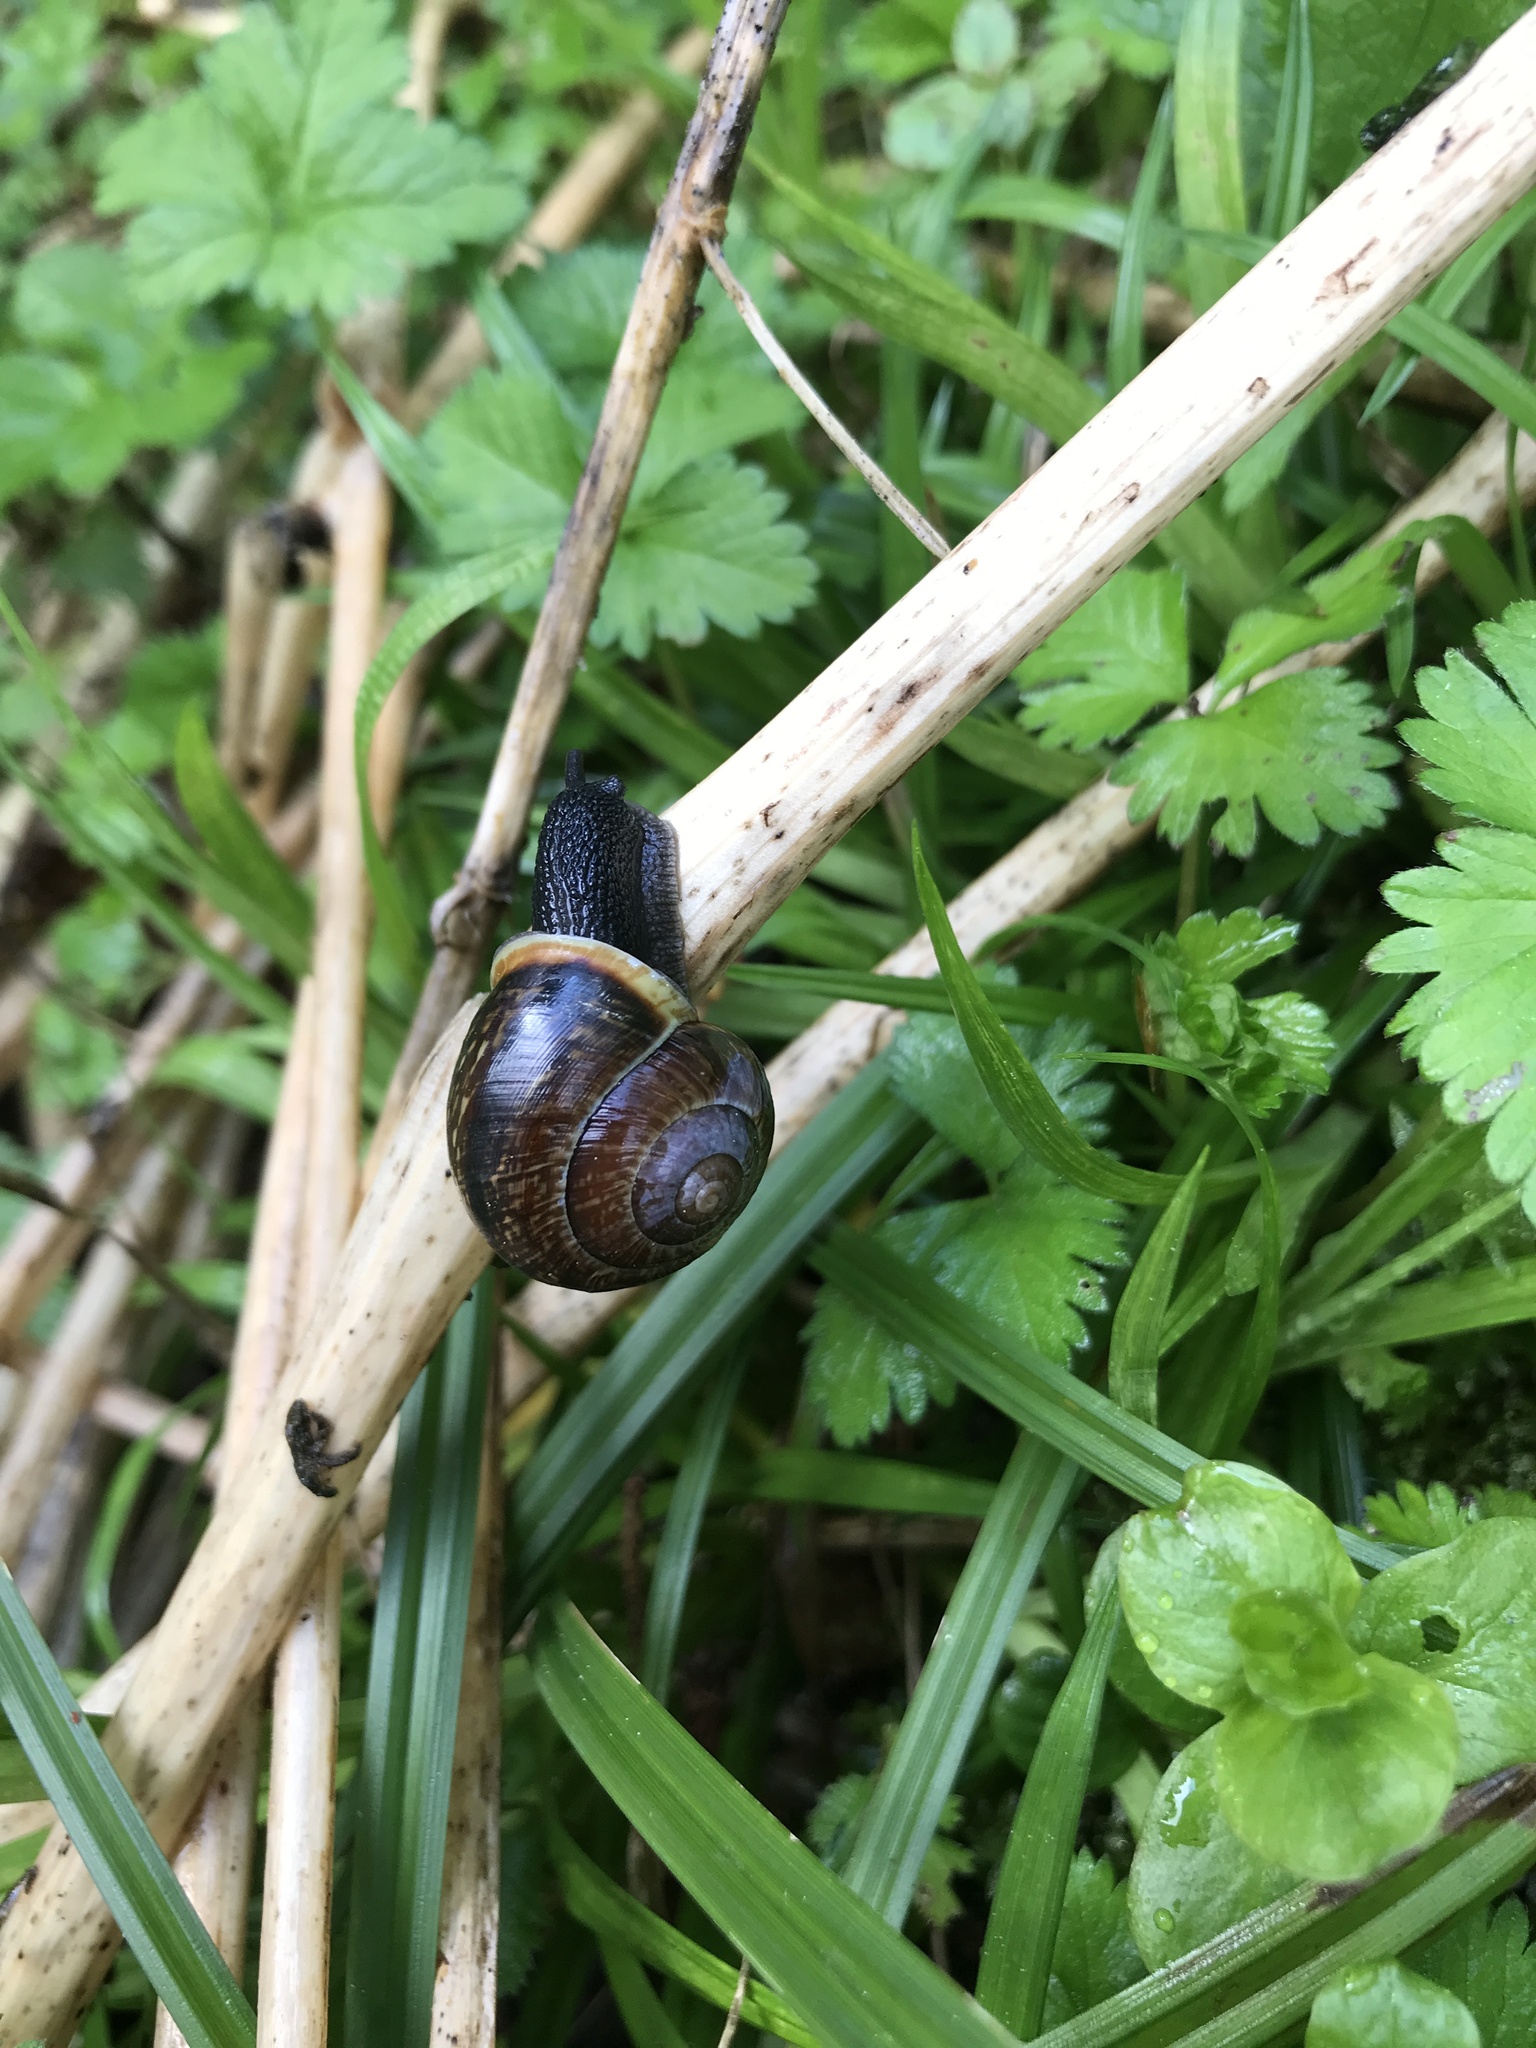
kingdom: Animalia
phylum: Mollusca
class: Gastropoda
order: Stylommatophora
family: Helicidae
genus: Arianta
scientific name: Arianta arbustorum
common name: Copse snail
